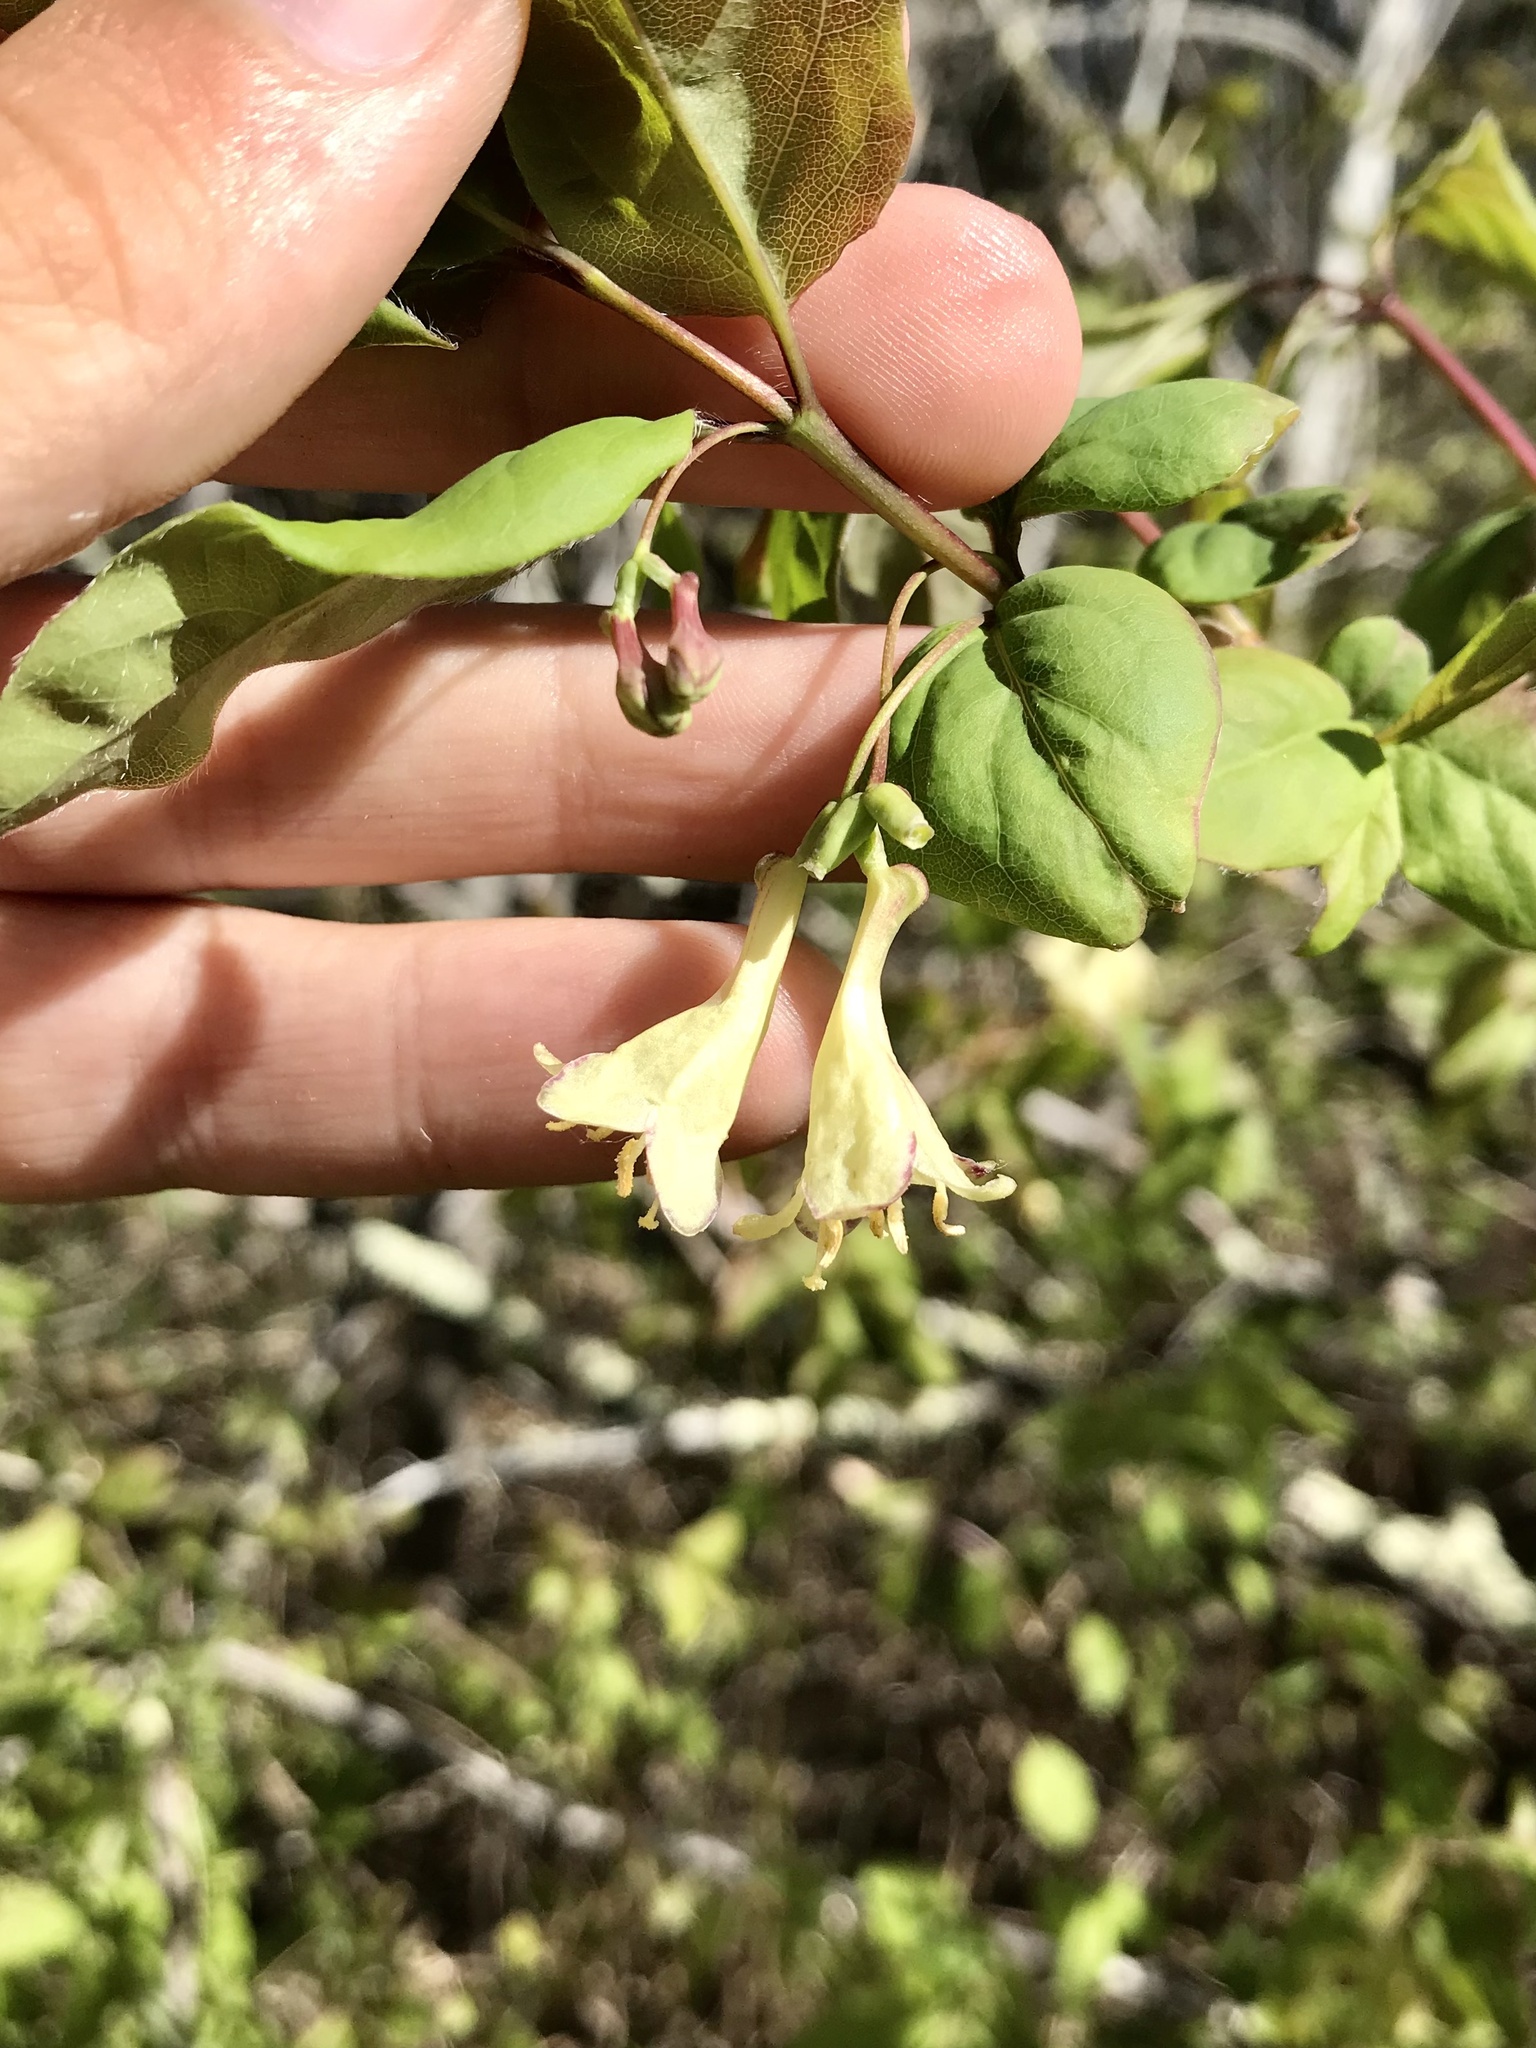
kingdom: Plantae
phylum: Tracheophyta
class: Magnoliopsida
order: Dipsacales
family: Caprifoliaceae
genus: Lonicera
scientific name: Lonicera canadensis
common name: American fly-honeysuckle
